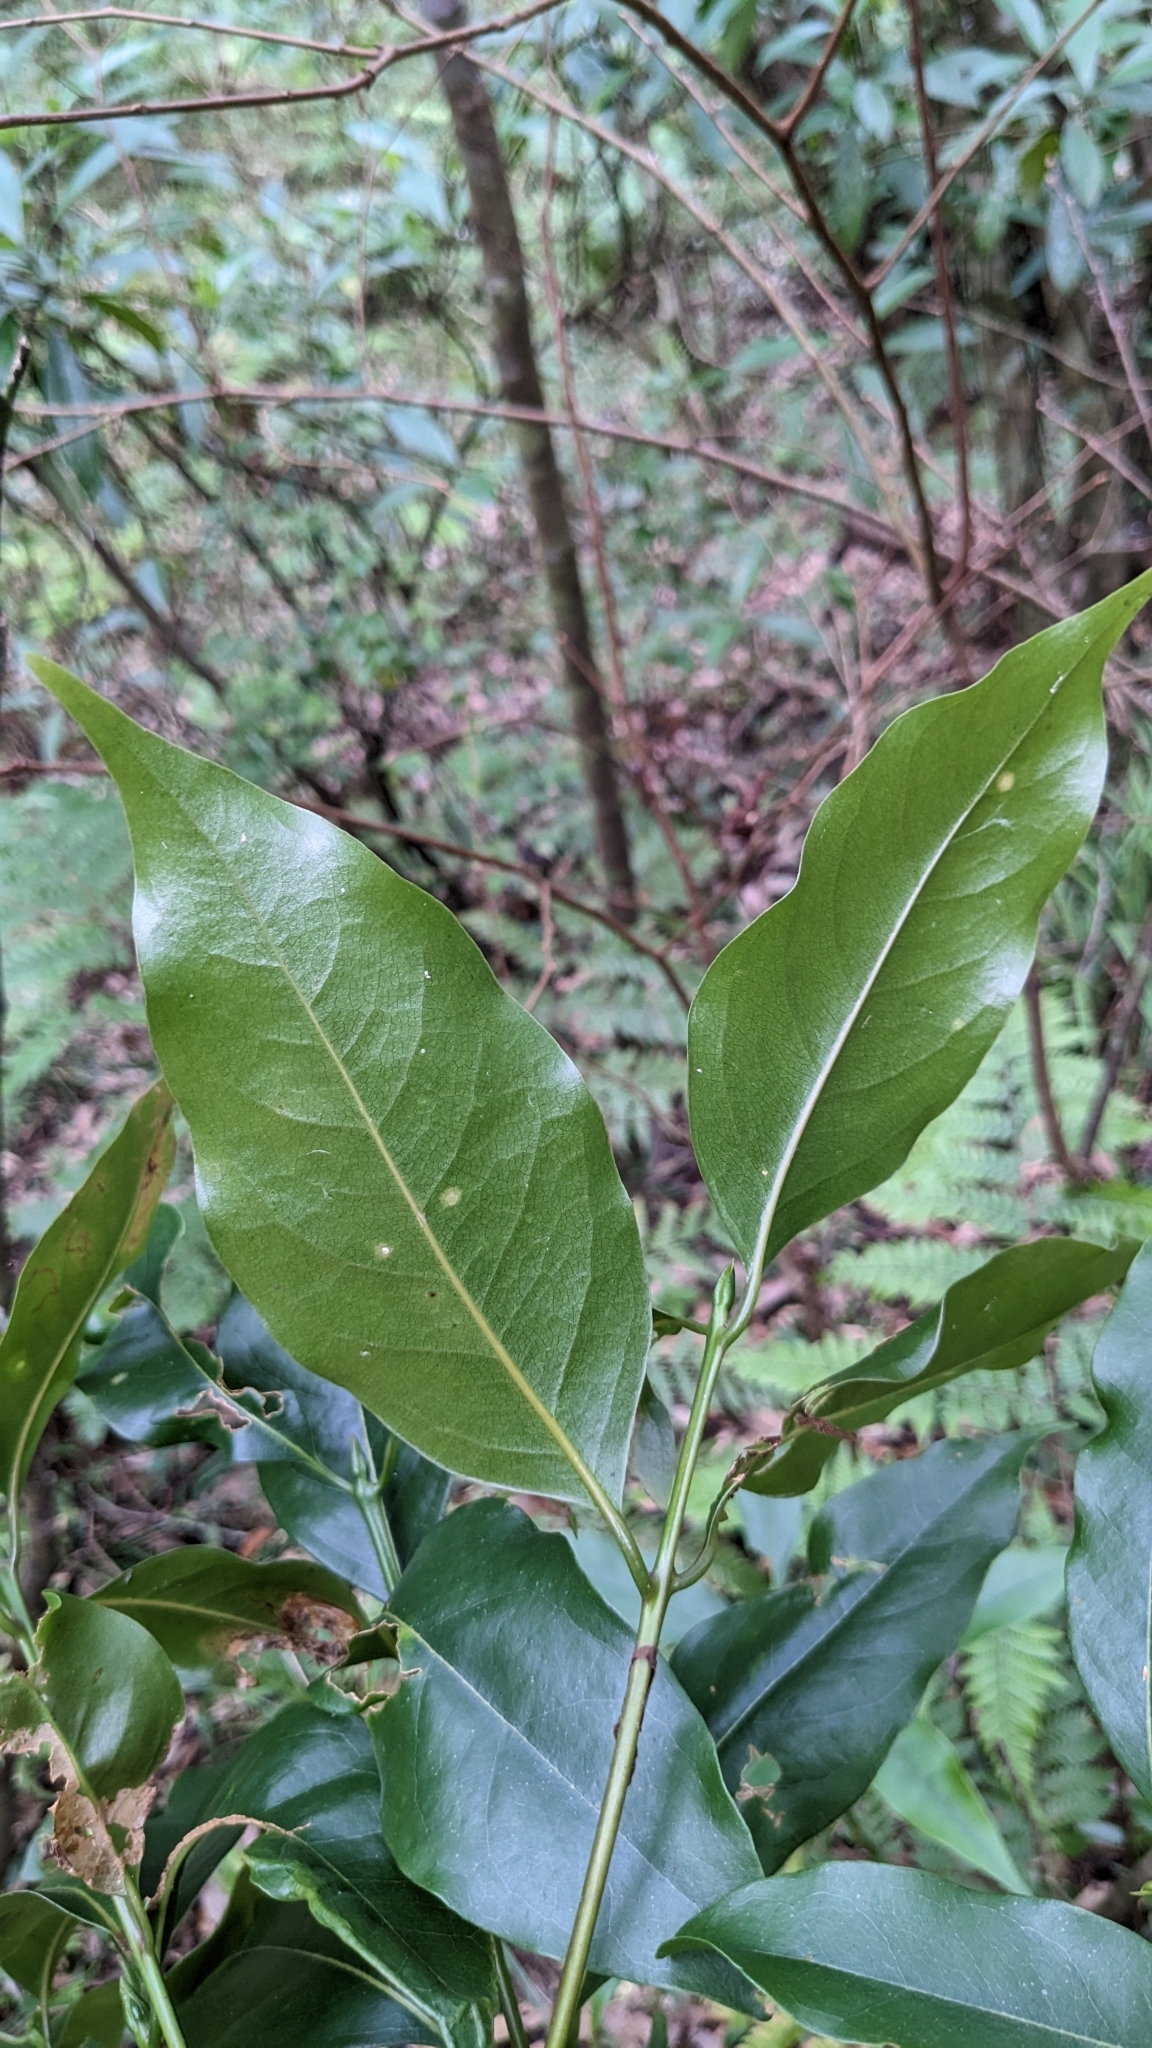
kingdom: Plantae
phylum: Tracheophyta
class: Magnoliopsida
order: Laurales
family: Lauraceae
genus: Beilschmiedia
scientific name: Beilschmiedia erythrophloia
